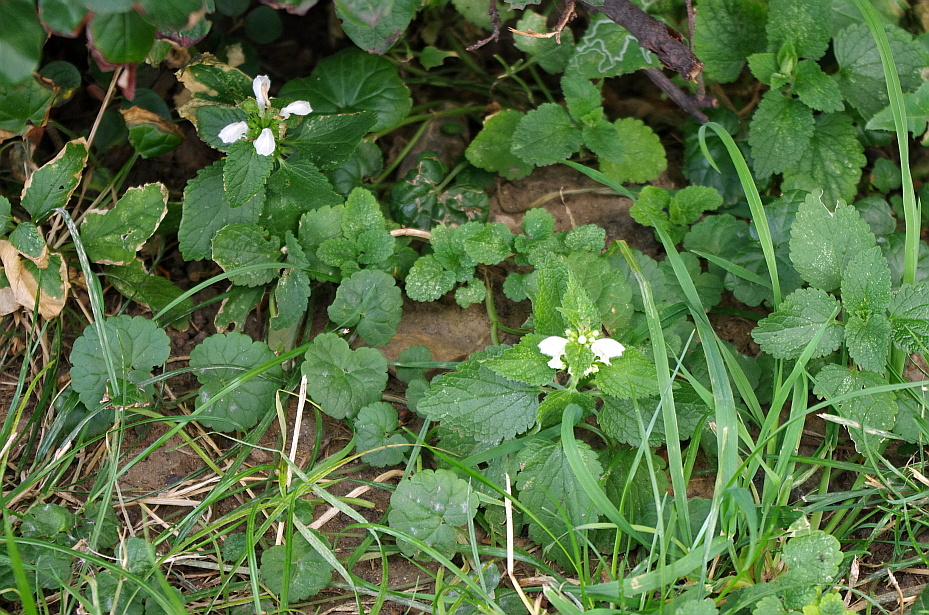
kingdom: Plantae
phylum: Tracheophyta
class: Magnoliopsida
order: Lamiales
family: Lamiaceae
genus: Lamium
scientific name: Lamium album
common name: White dead-nettle
